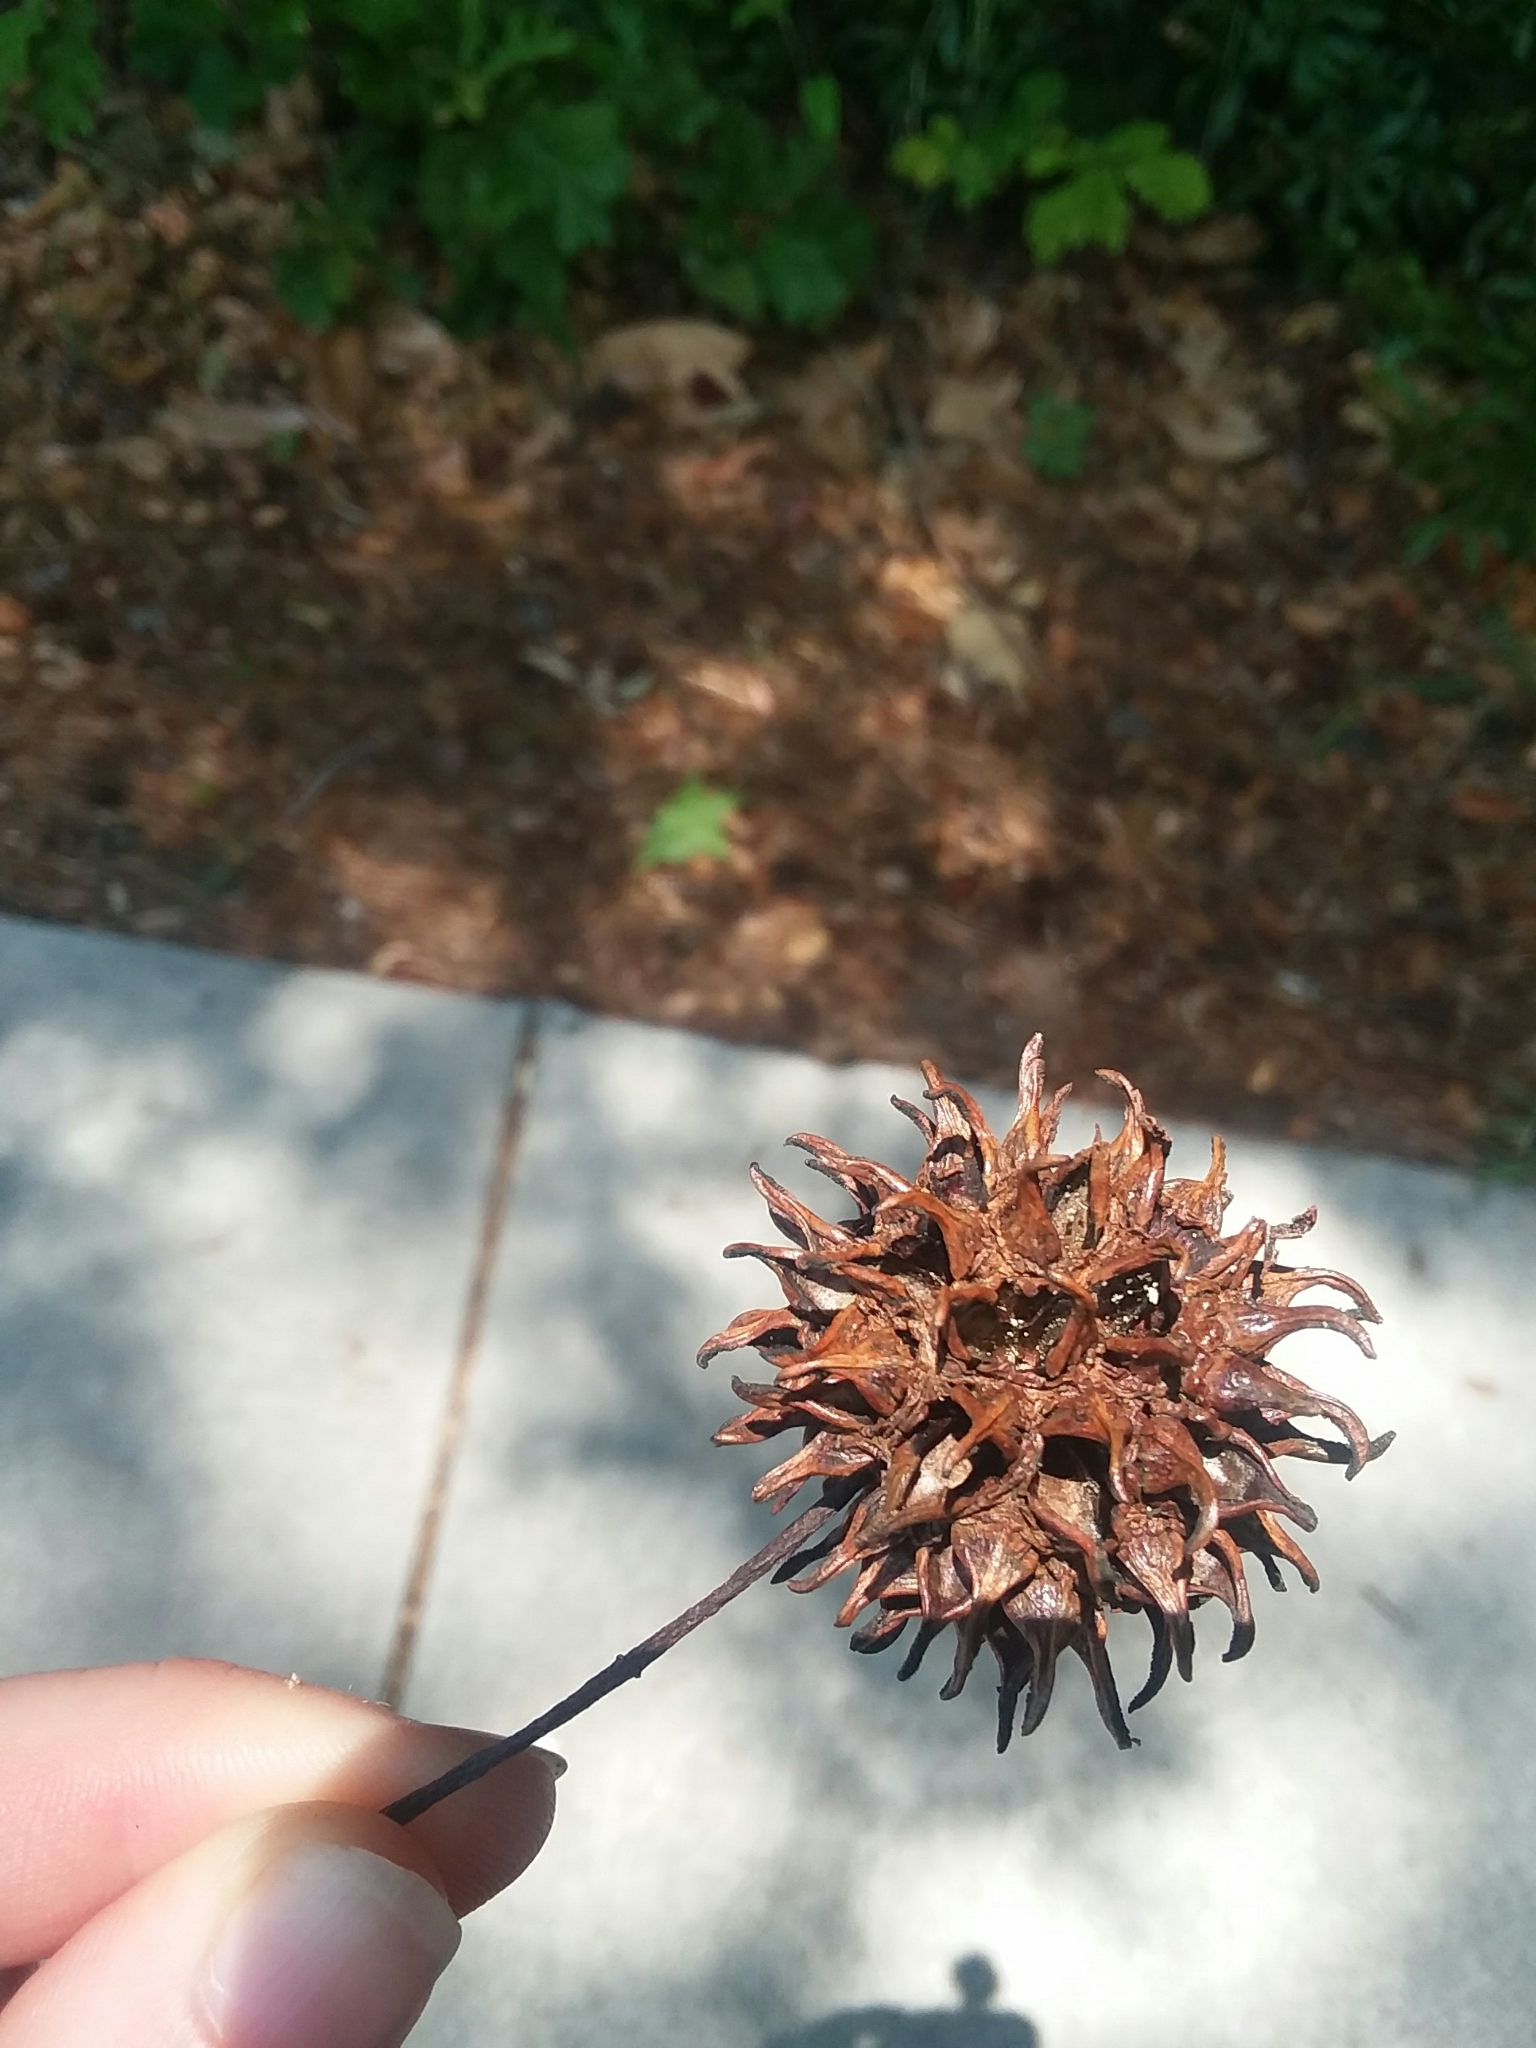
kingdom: Plantae
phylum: Tracheophyta
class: Magnoliopsida
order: Saxifragales
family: Altingiaceae
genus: Liquidambar
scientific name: Liquidambar styraciflua
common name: Sweet gum
